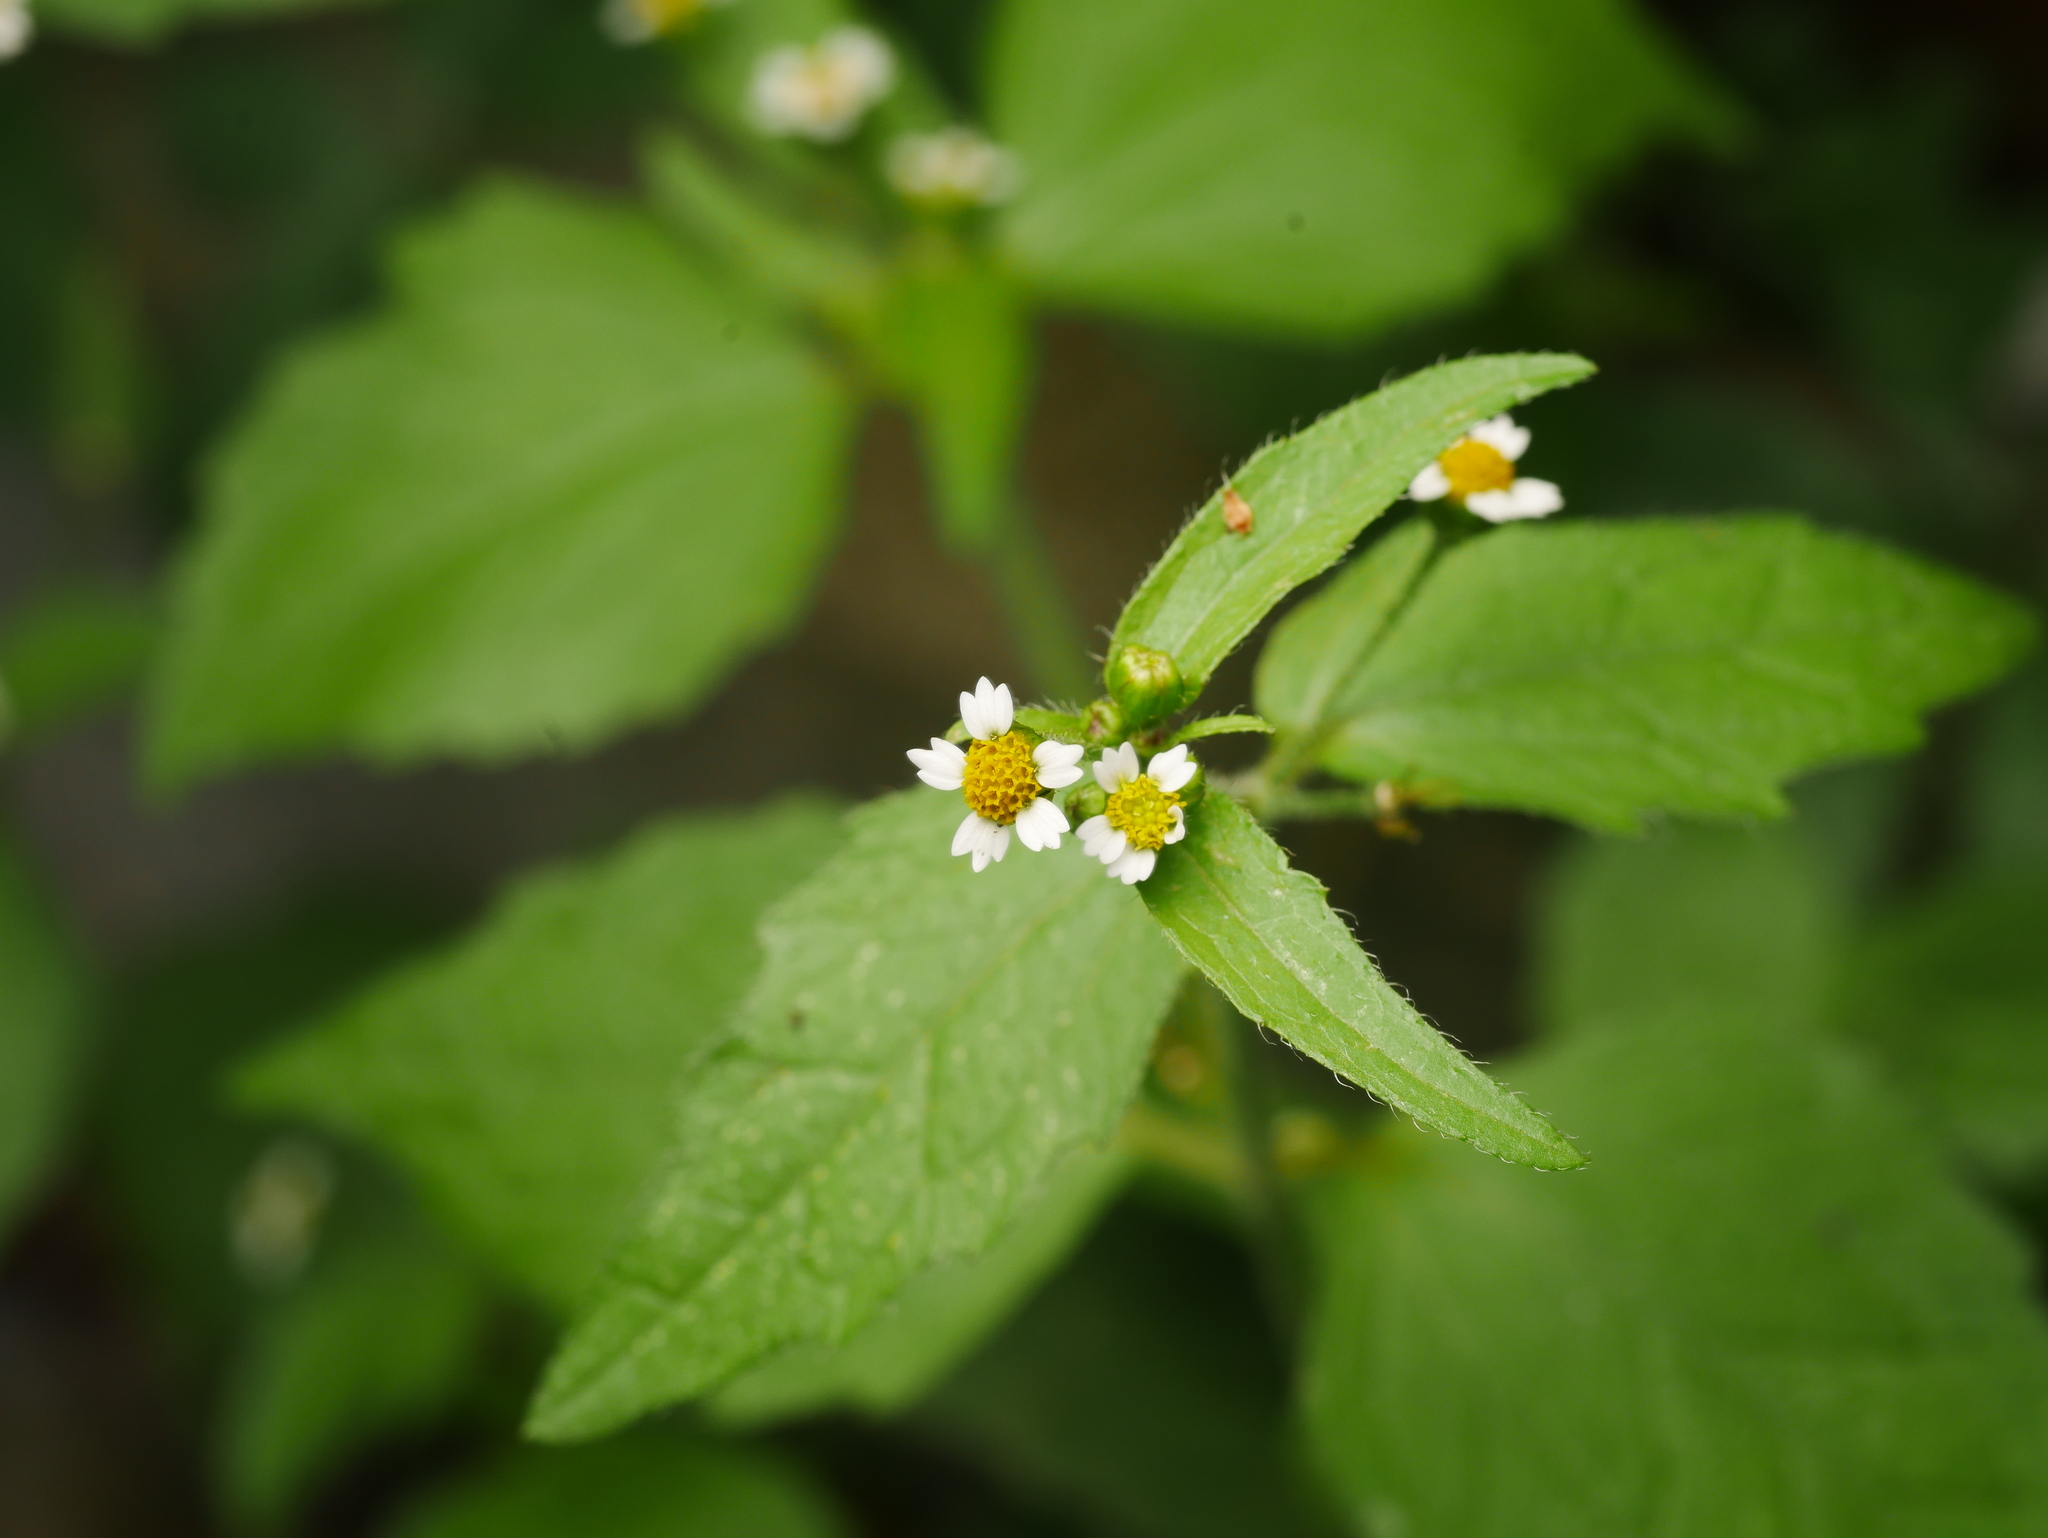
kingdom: Plantae
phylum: Tracheophyta
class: Magnoliopsida
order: Asterales
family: Asteraceae
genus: Galinsoga
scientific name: Galinsoga quadriradiata
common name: Shaggy soldier
